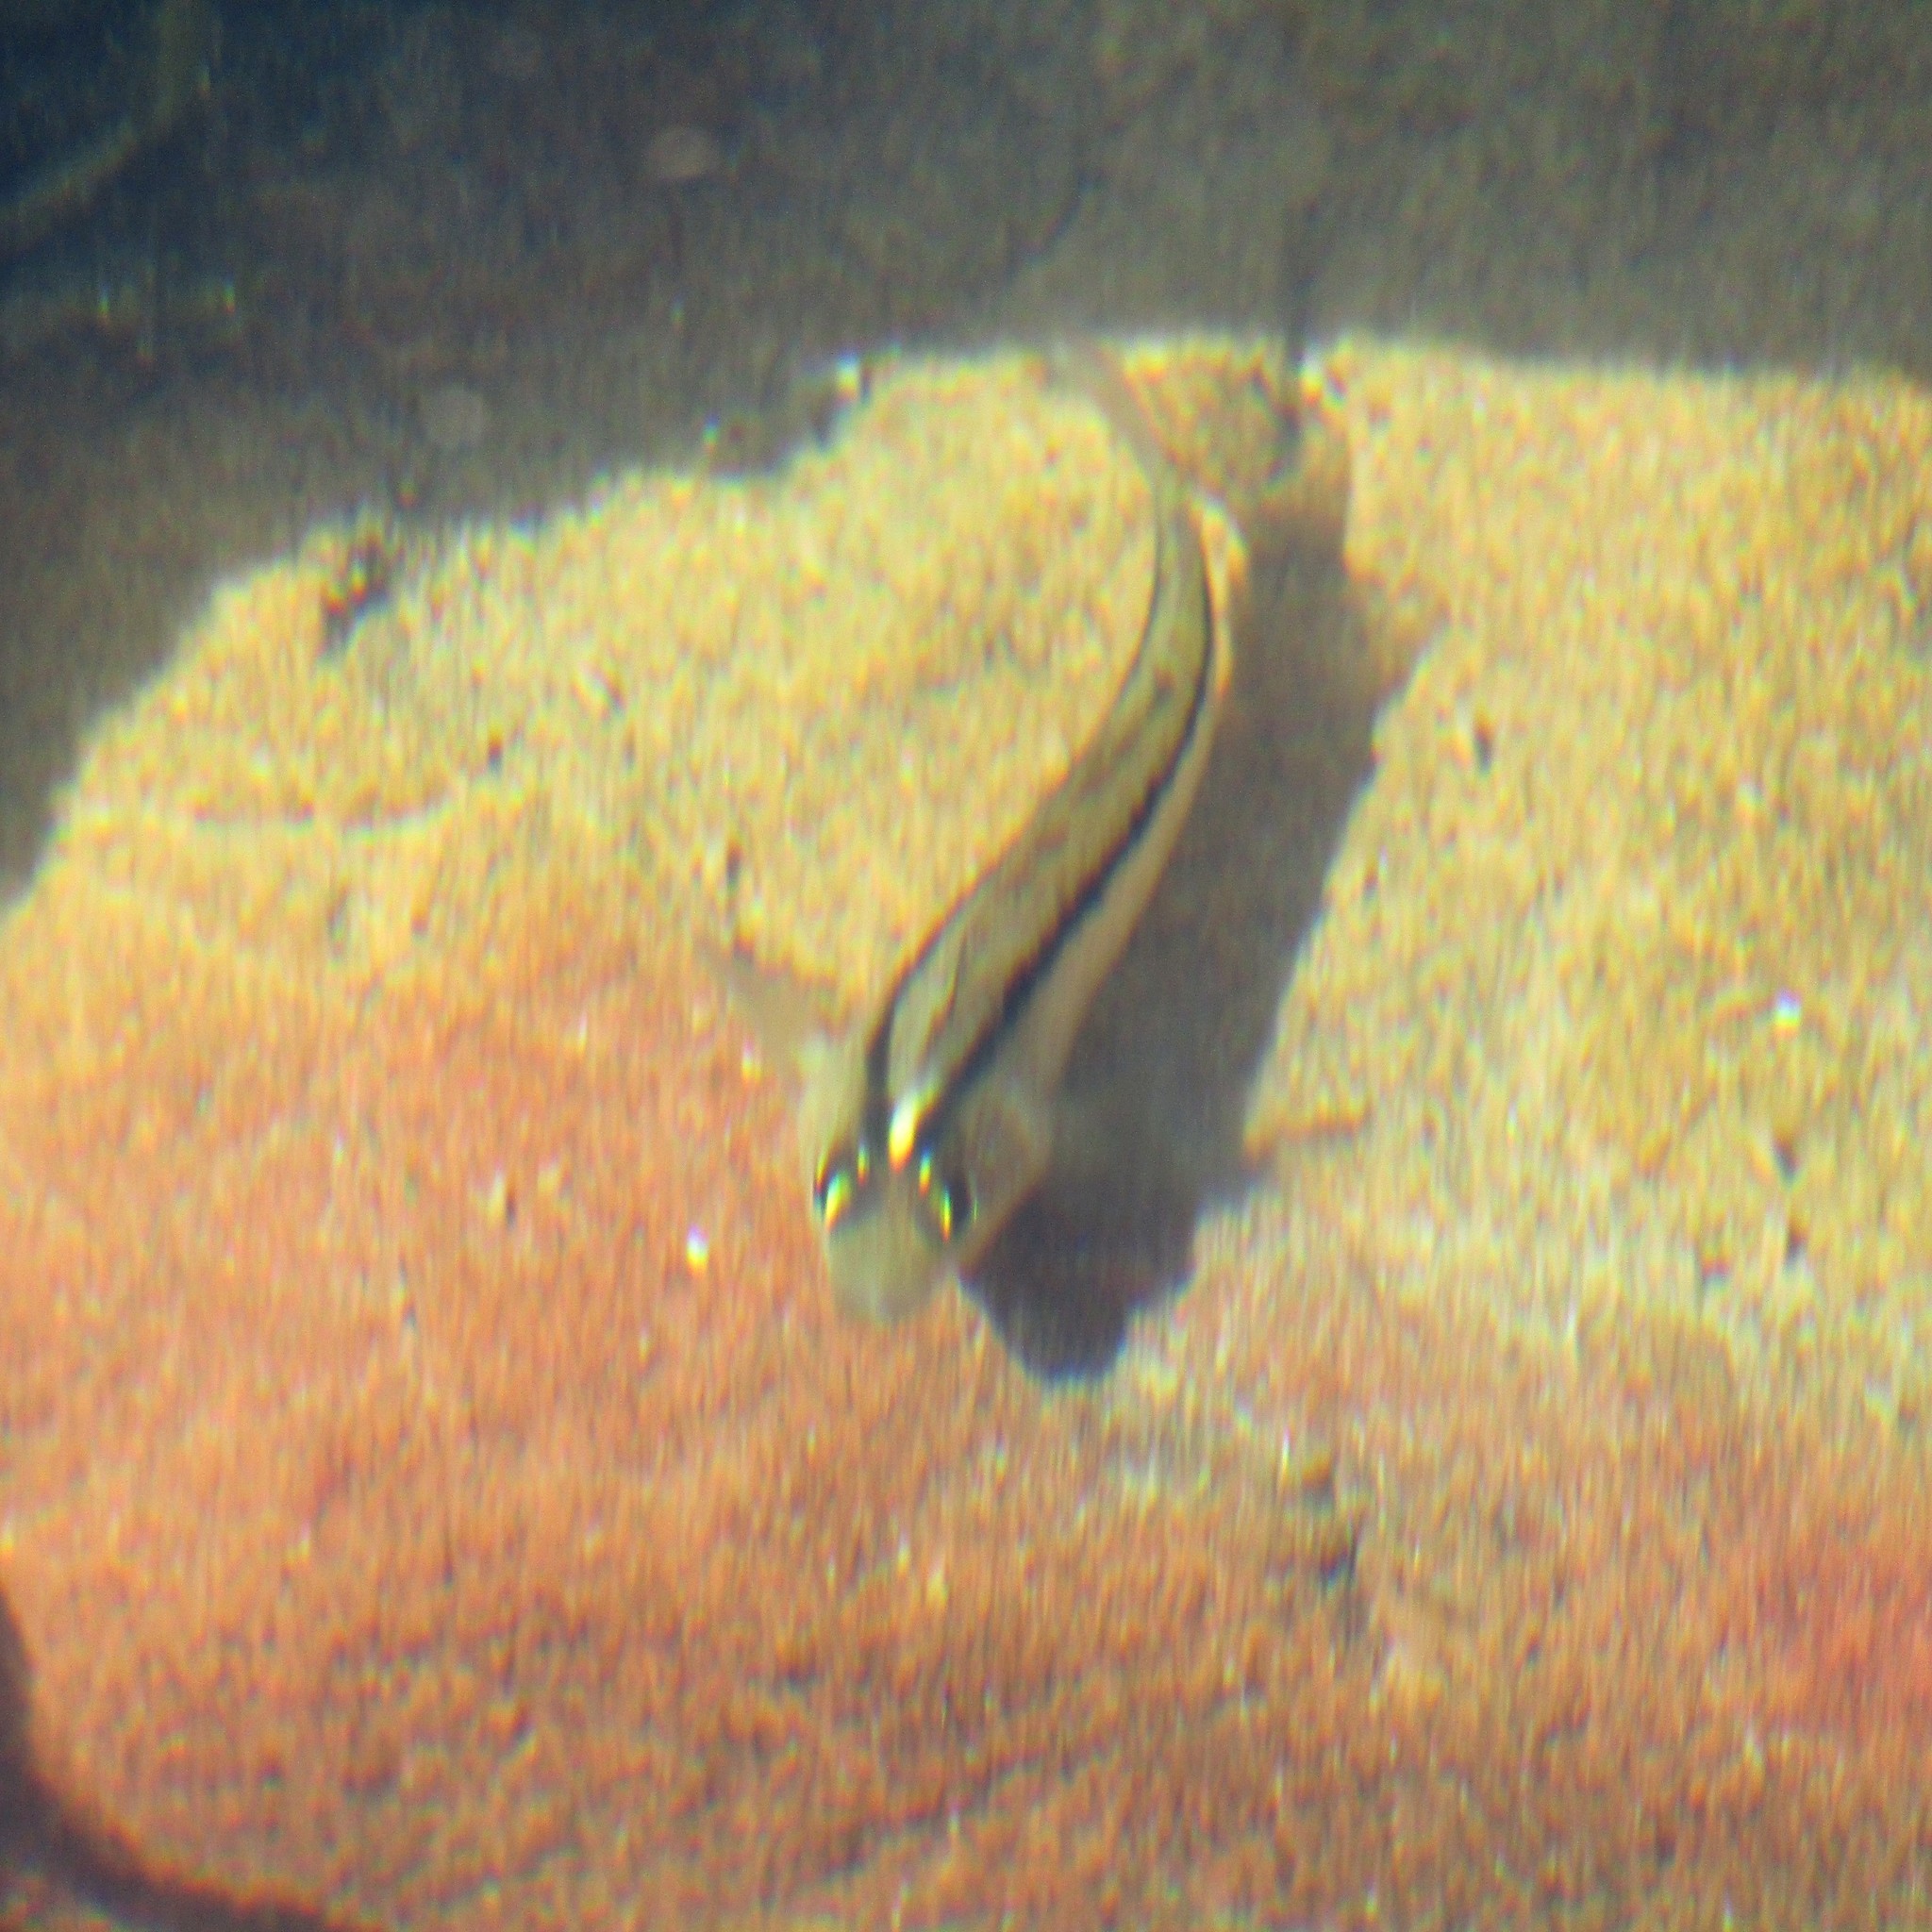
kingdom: Animalia
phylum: Chordata
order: Perciformes
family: Tripterygiidae
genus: Forsterygion
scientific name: Forsterygion lapillum
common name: Common triplefin
